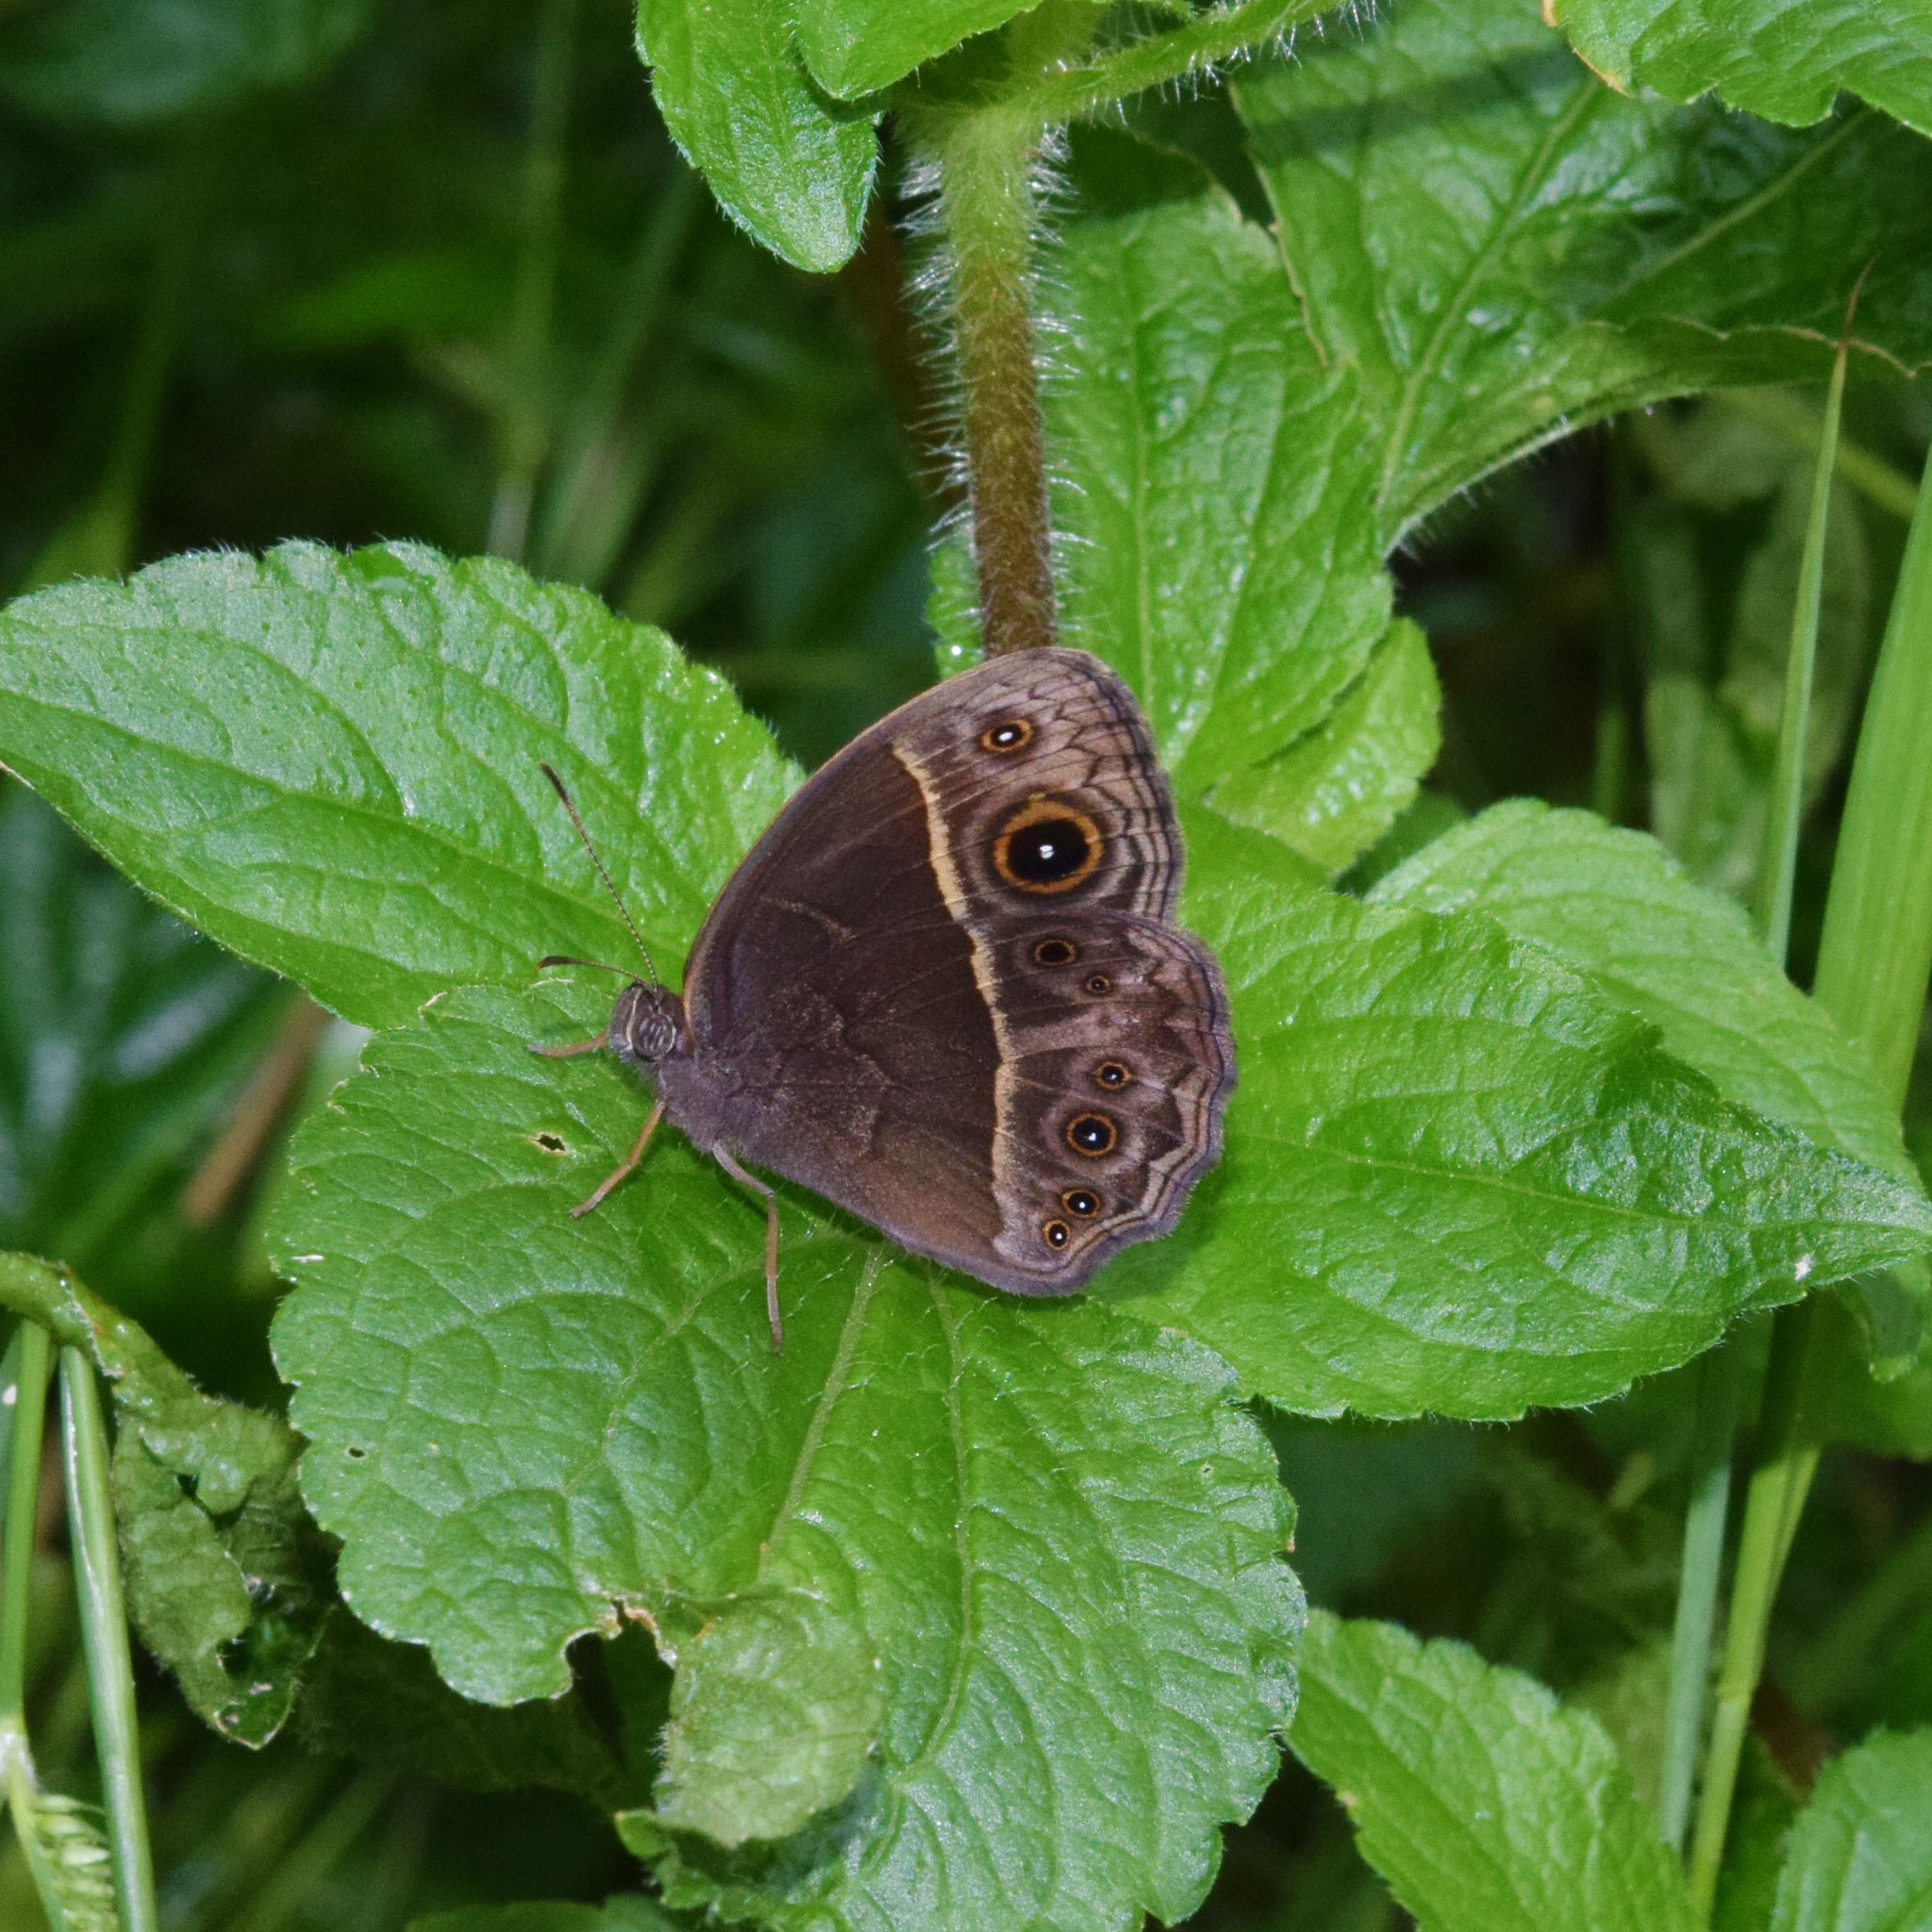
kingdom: Animalia
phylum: Arthropoda
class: Insecta
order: Lepidoptera
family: Nymphalidae
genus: Mycalesis
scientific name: Mycalesis rhacotis
